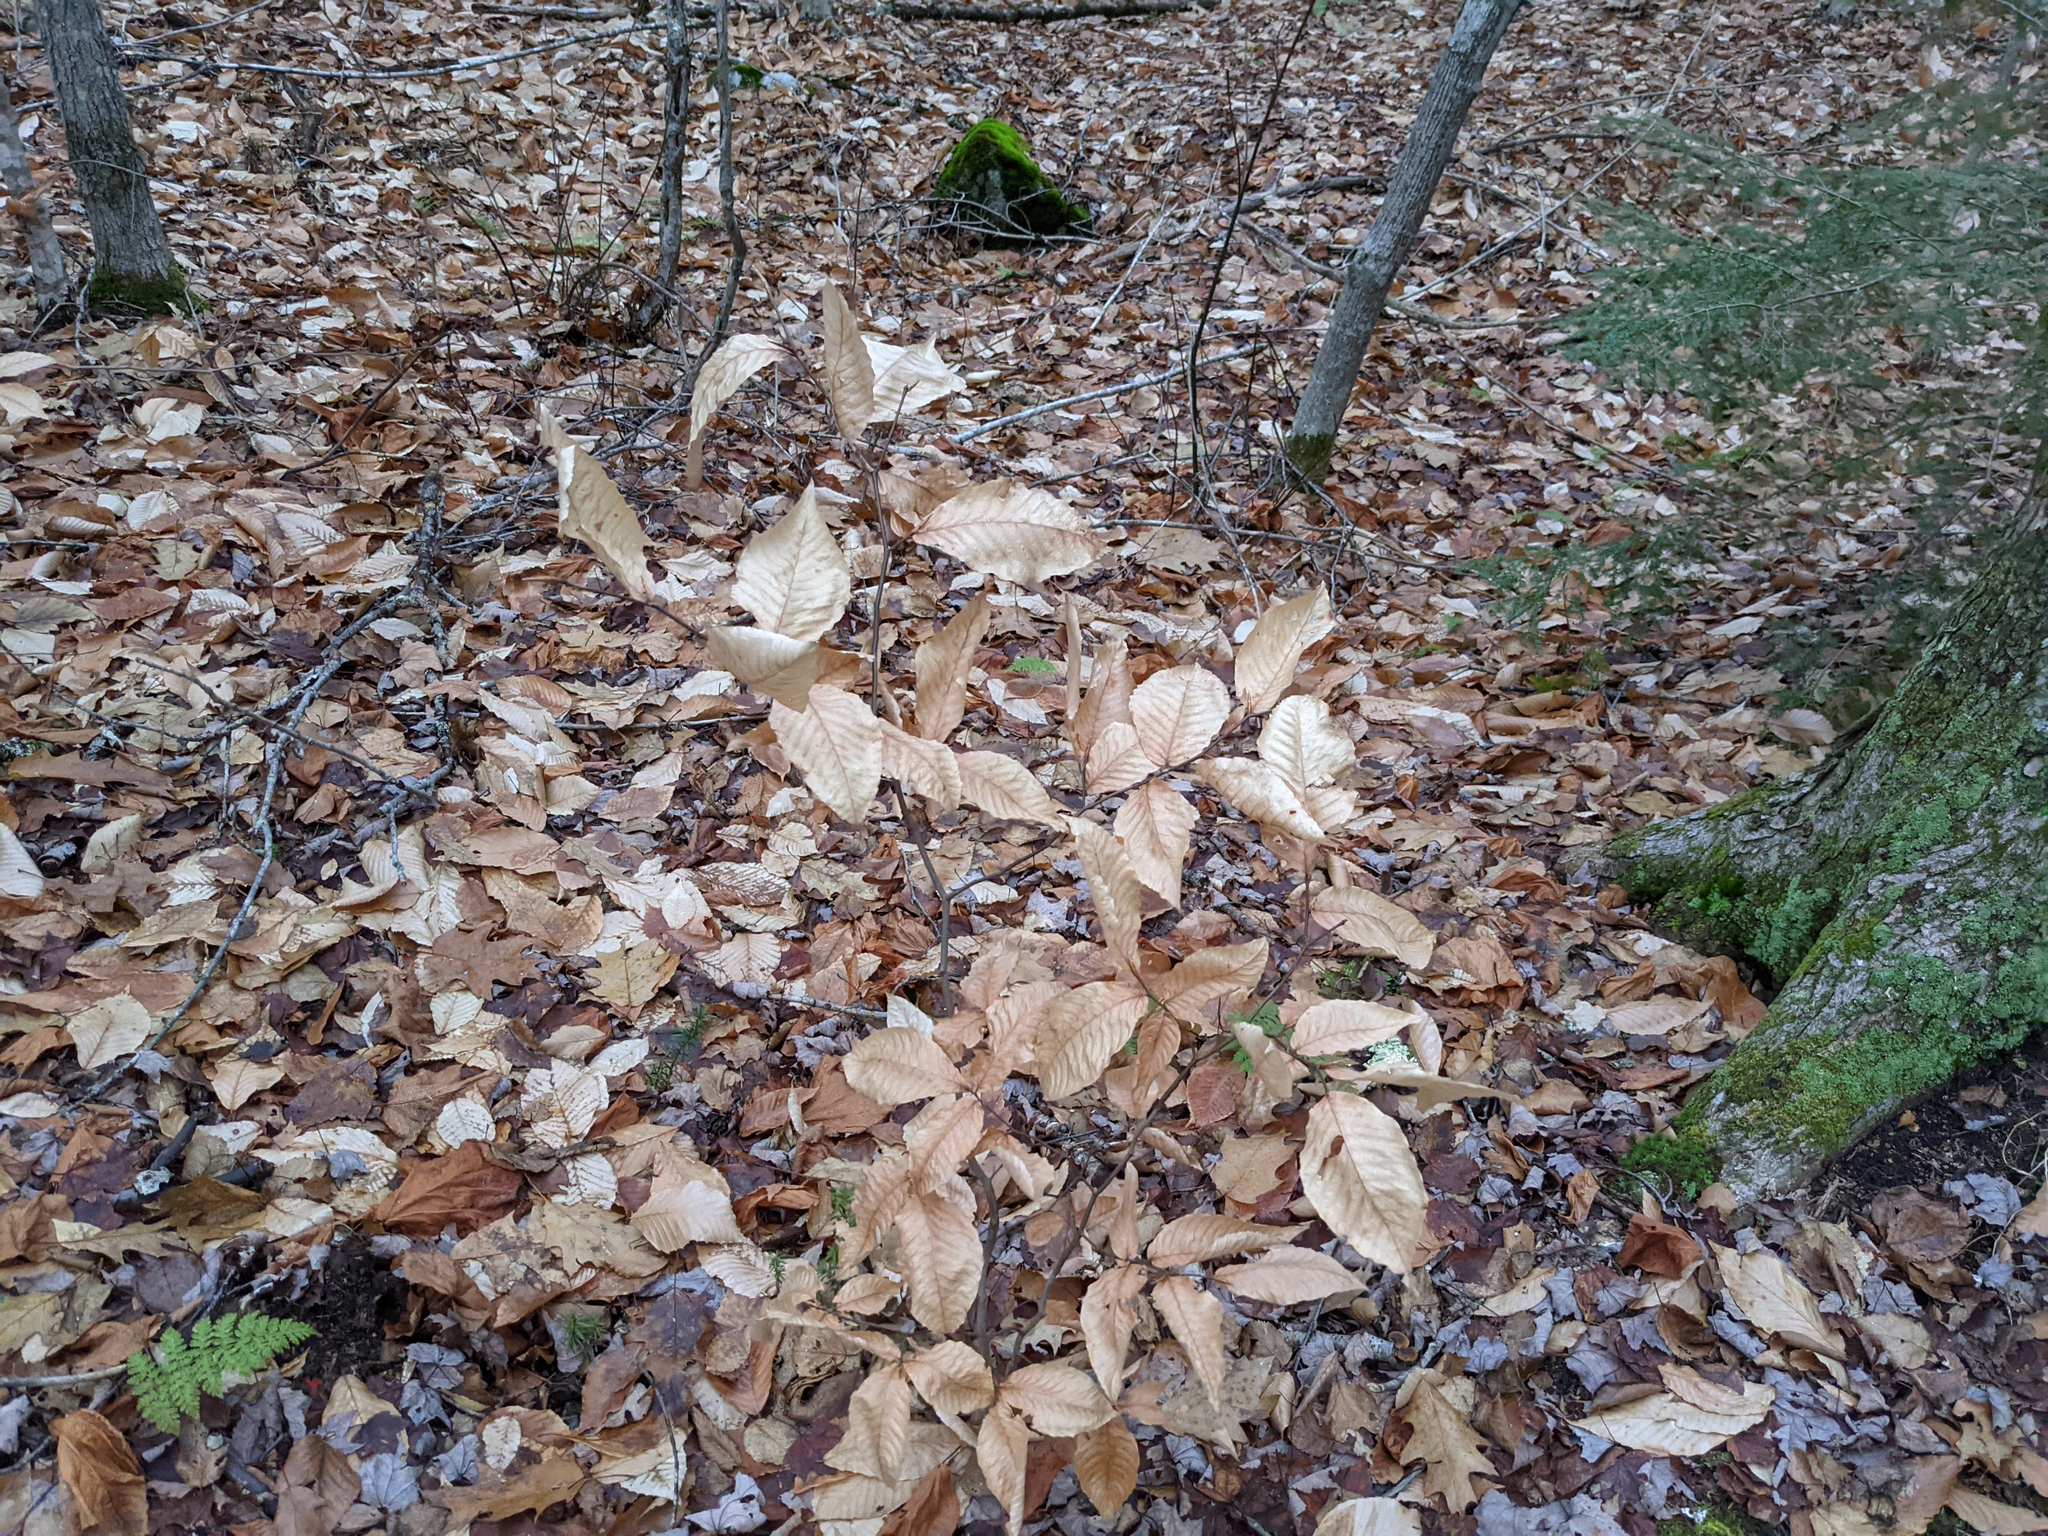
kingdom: Plantae
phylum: Tracheophyta
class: Magnoliopsida
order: Fagales
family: Fagaceae
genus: Fagus
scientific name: Fagus grandifolia
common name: American beech
